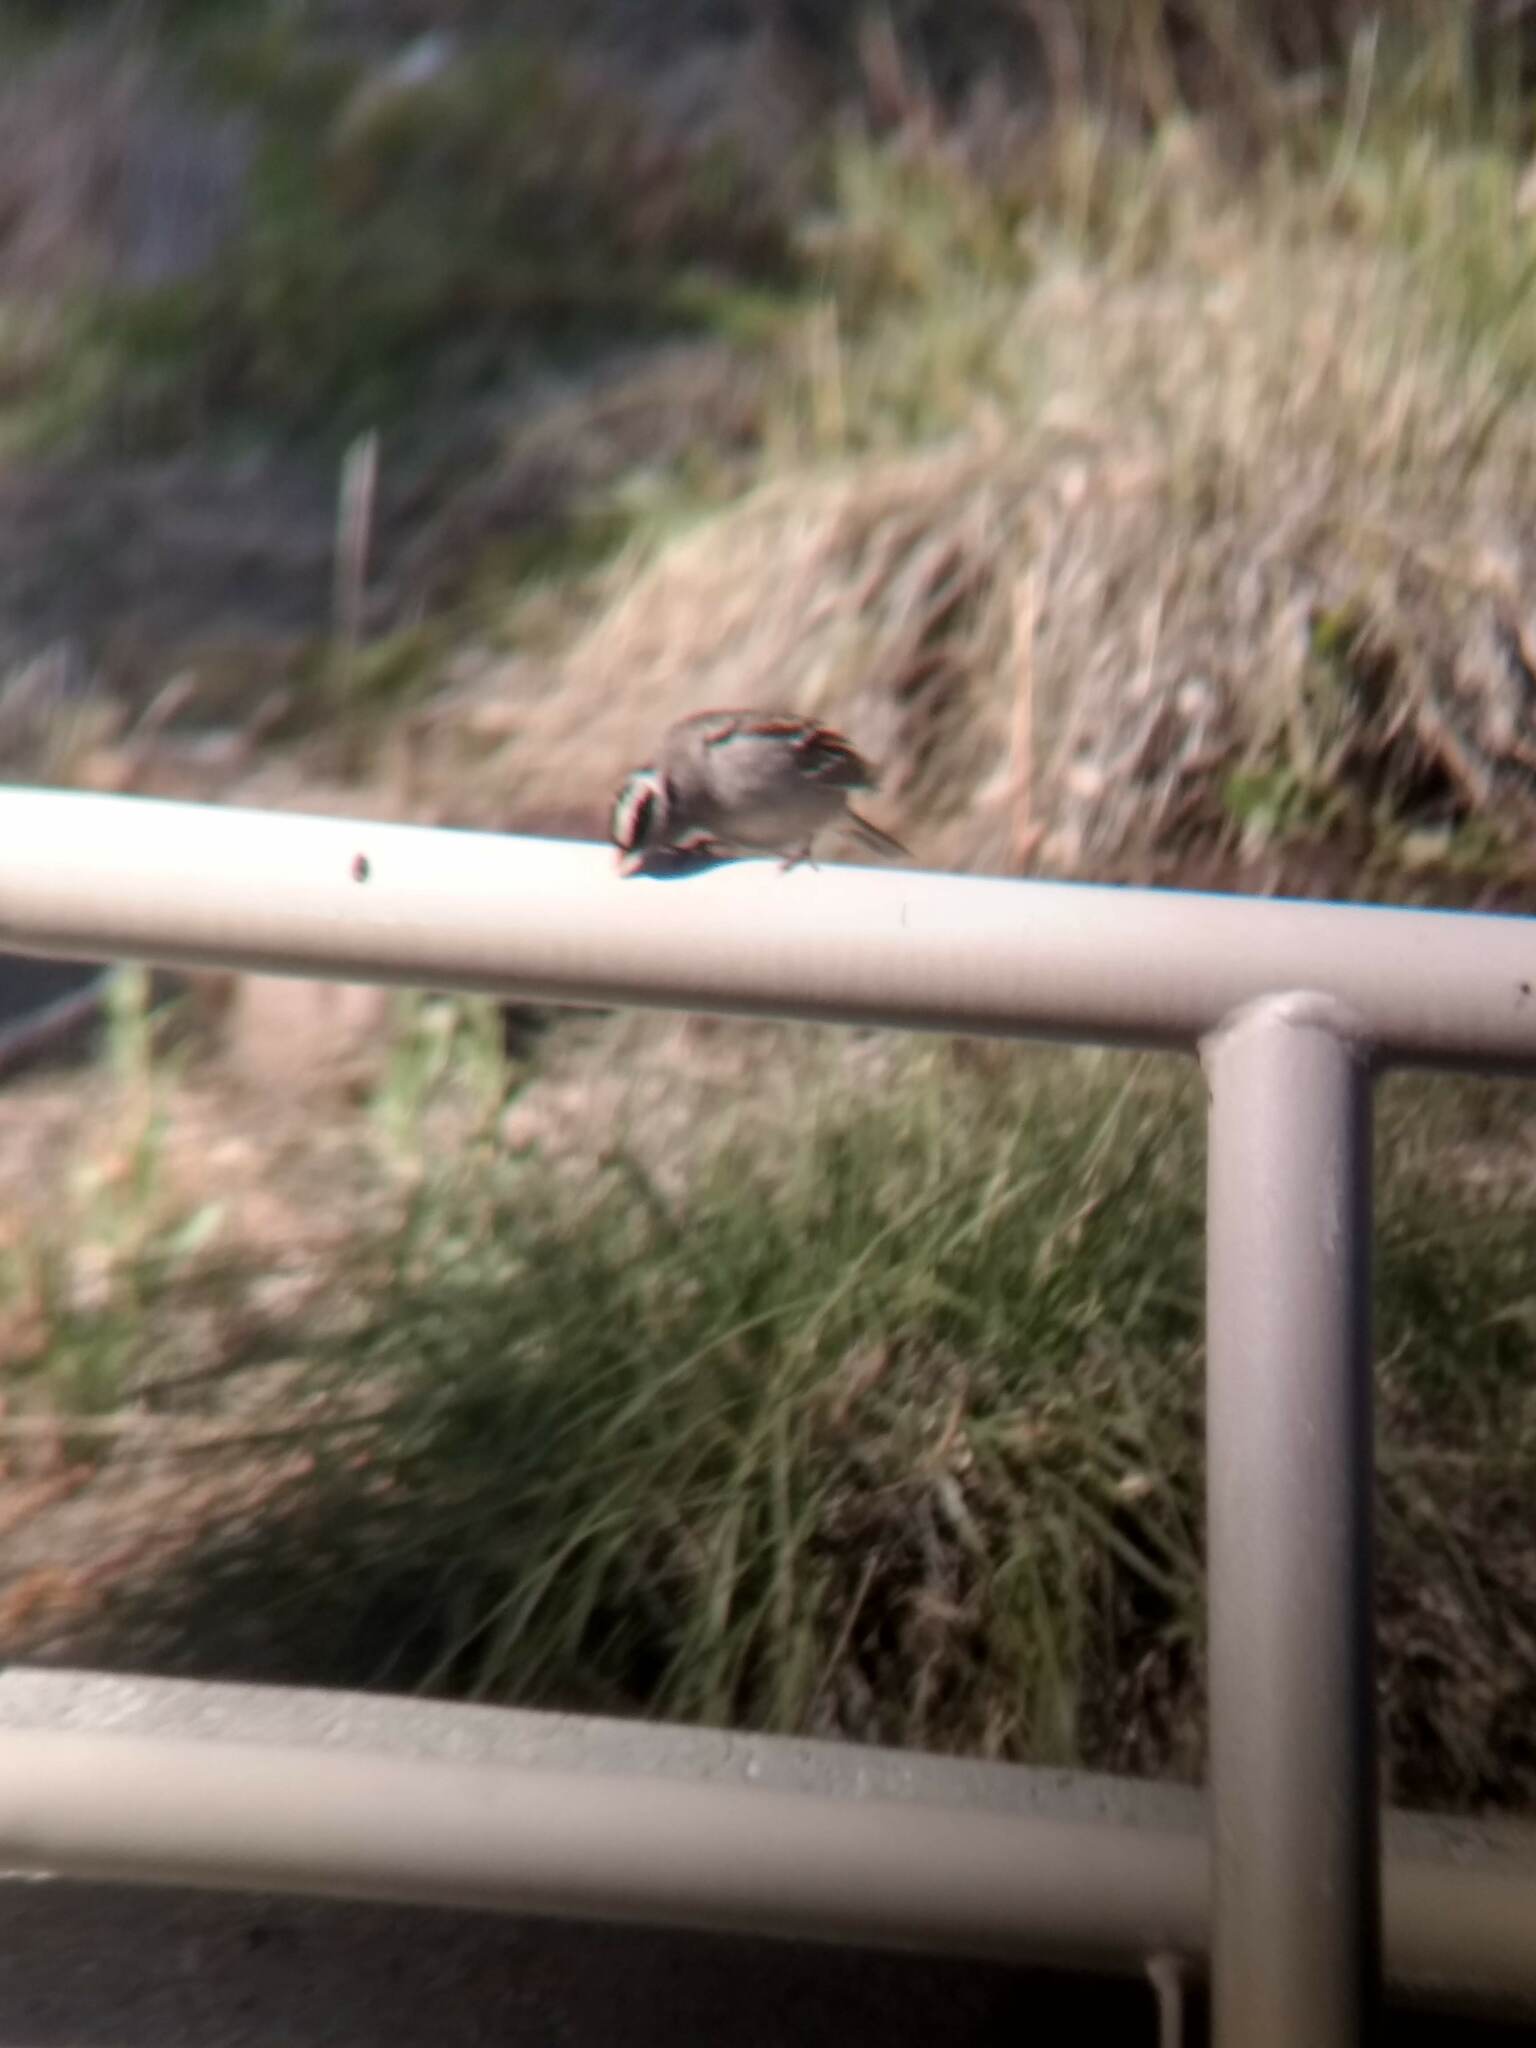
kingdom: Animalia
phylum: Chordata
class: Aves
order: Passeriformes
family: Passerellidae
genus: Zonotrichia
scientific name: Zonotrichia leucophrys
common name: White-crowned sparrow
